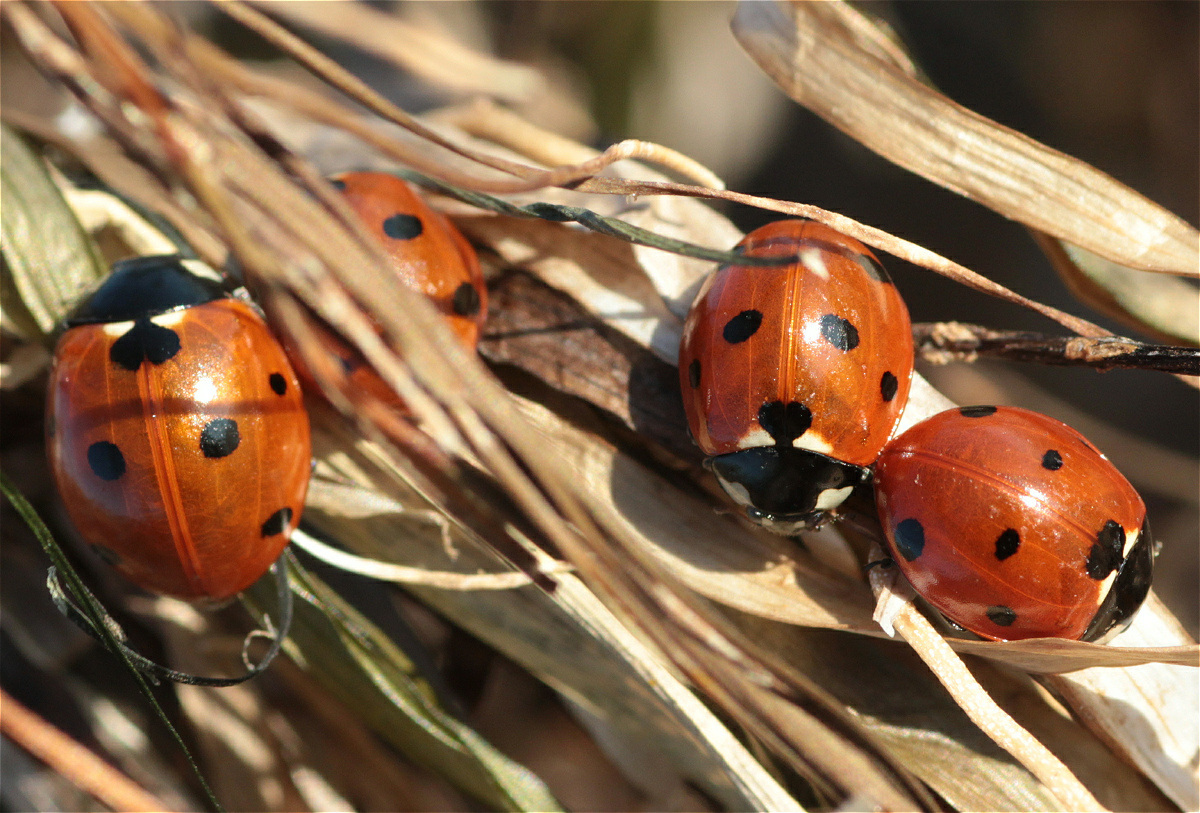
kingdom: Animalia
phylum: Arthropoda
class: Insecta
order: Coleoptera
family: Coccinellidae
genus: Coccinella
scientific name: Coccinella septempunctata
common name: Sevenspotted lady beetle
